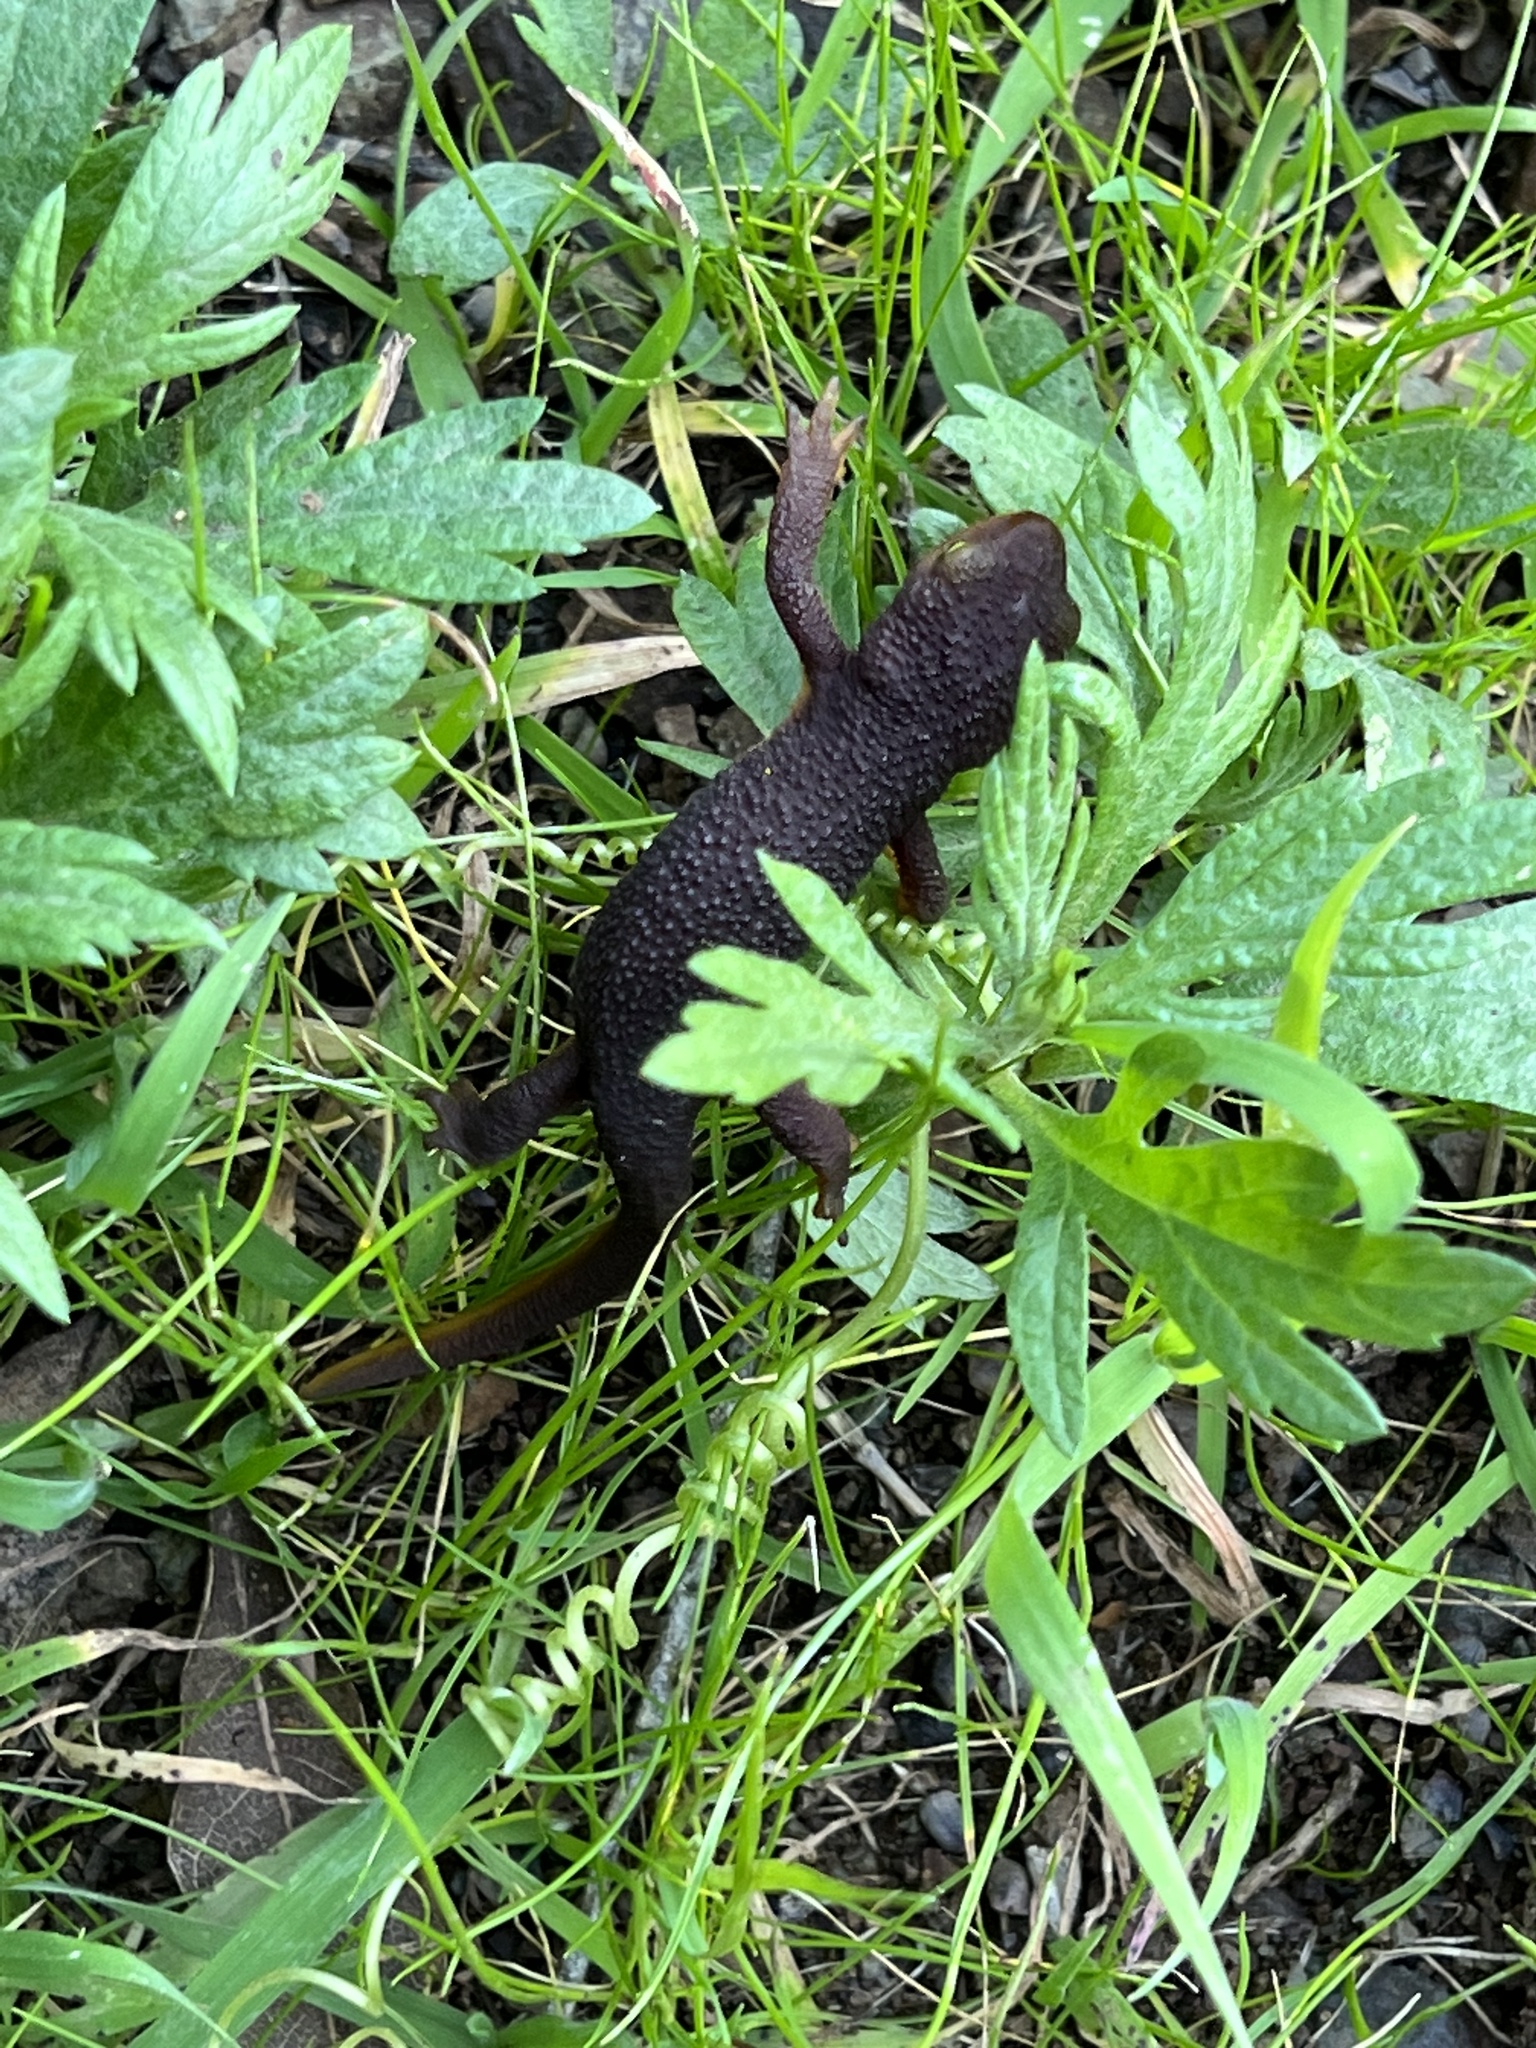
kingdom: Animalia
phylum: Chordata
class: Amphibia
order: Caudata
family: Salamandridae
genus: Taricha
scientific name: Taricha torosa
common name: California newt
